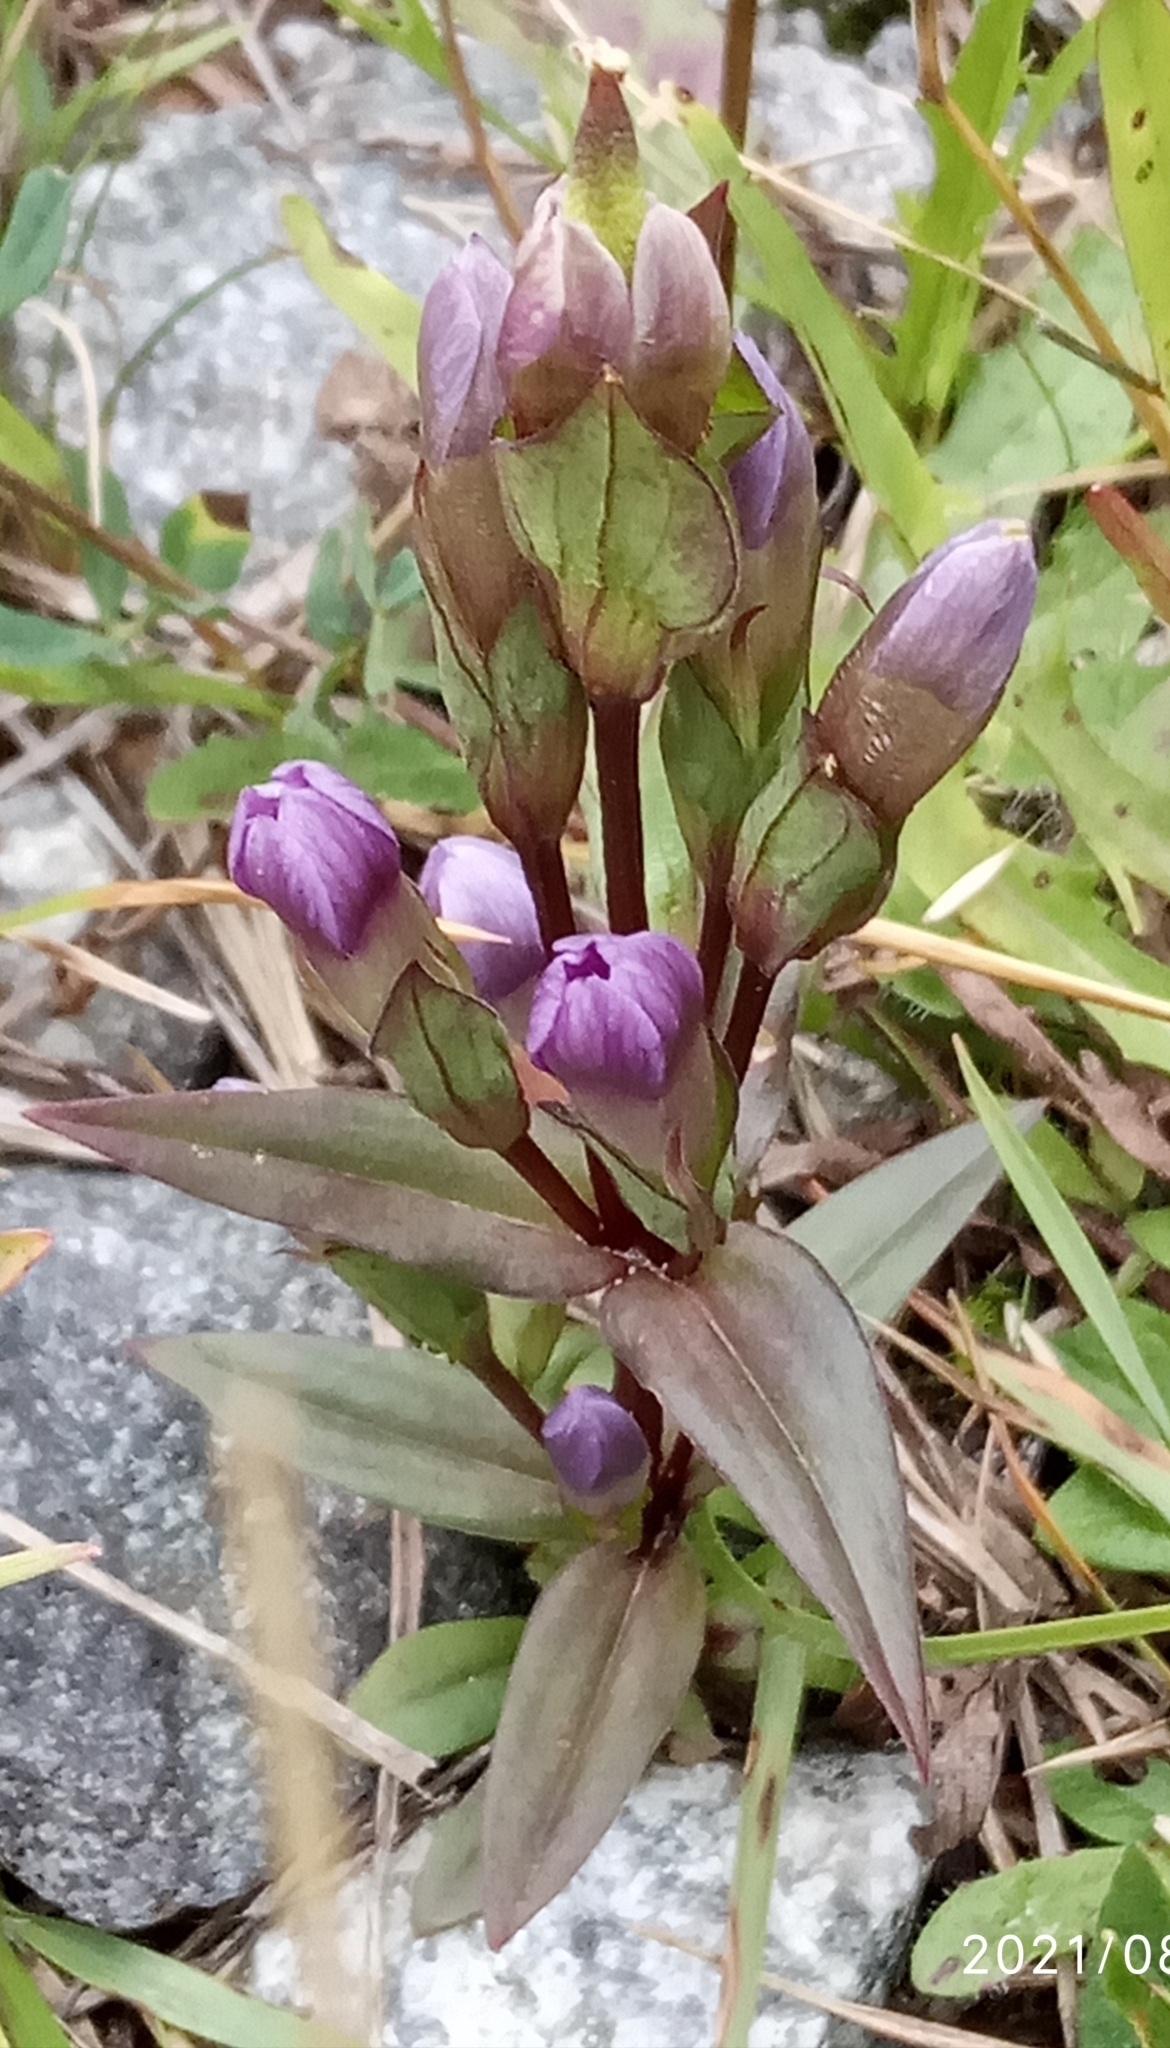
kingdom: Plantae
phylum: Tracheophyta
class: Magnoliopsida
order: Gentianales
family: Gentianaceae
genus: Gentianella
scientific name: Gentianella campestris
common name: Field gentian
